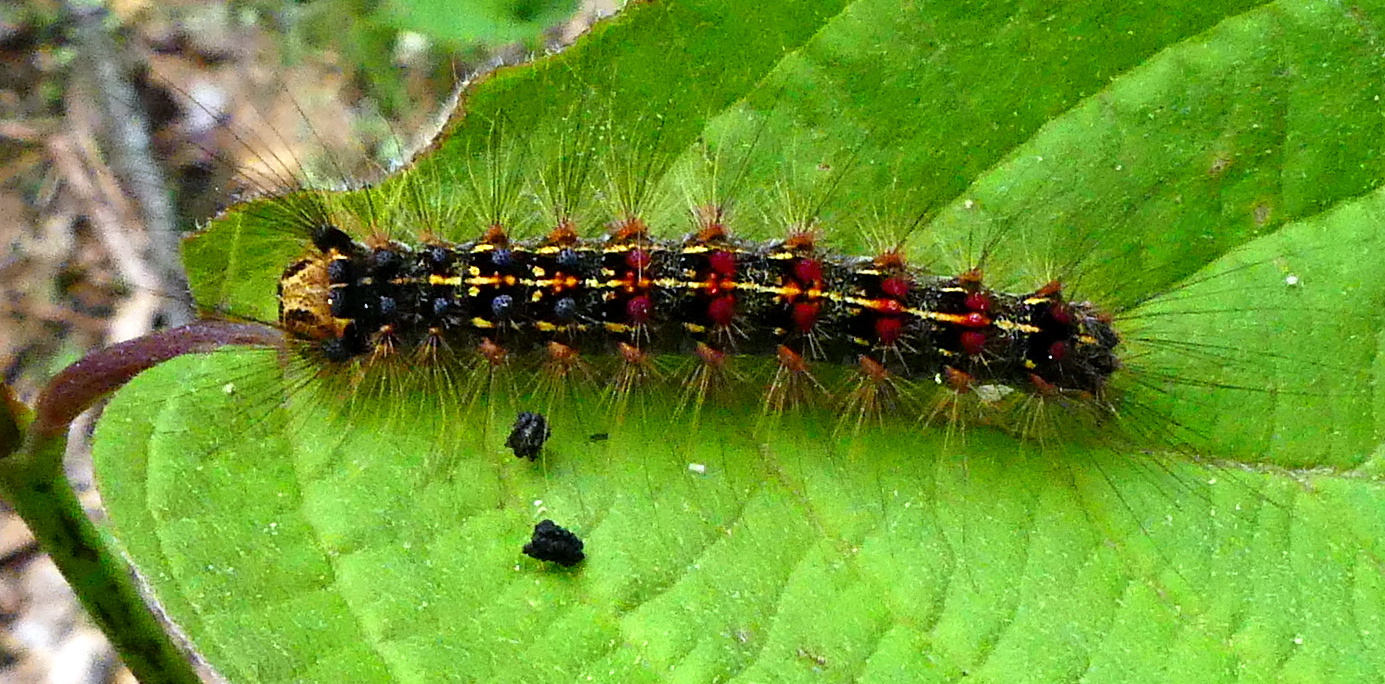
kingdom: Animalia
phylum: Arthropoda
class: Insecta
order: Lepidoptera
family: Erebidae
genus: Lymantria
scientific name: Lymantria dispar
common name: Gypsy moth
